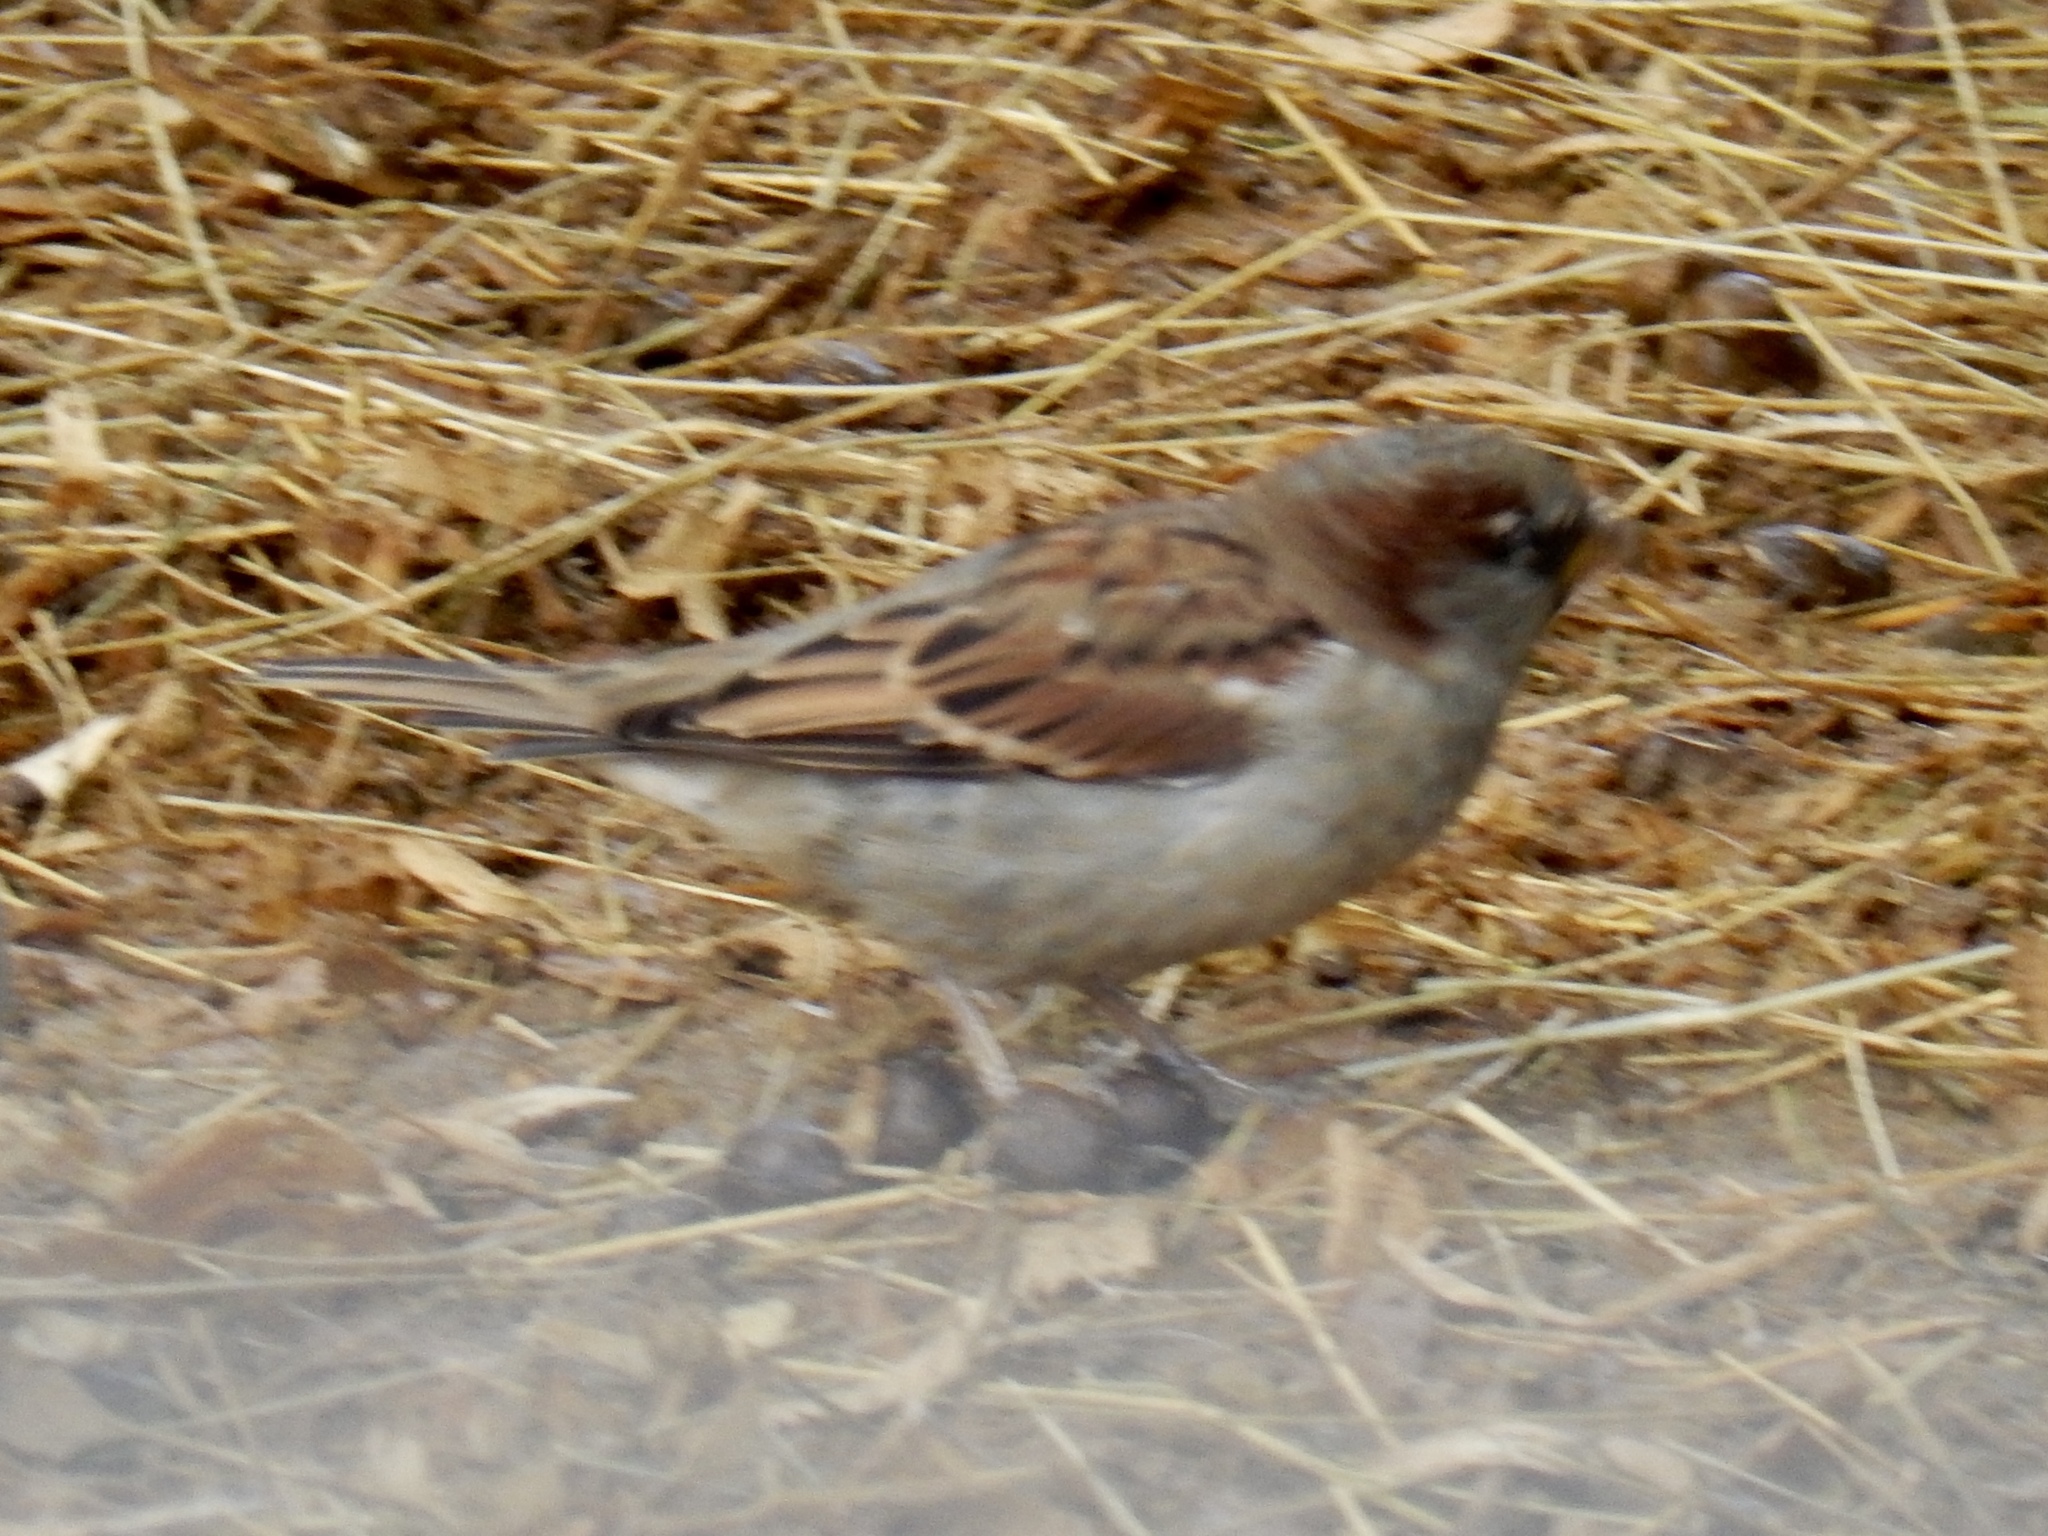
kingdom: Animalia
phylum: Chordata
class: Aves
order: Passeriformes
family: Passeridae
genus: Passer
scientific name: Passer domesticus
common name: House sparrow
